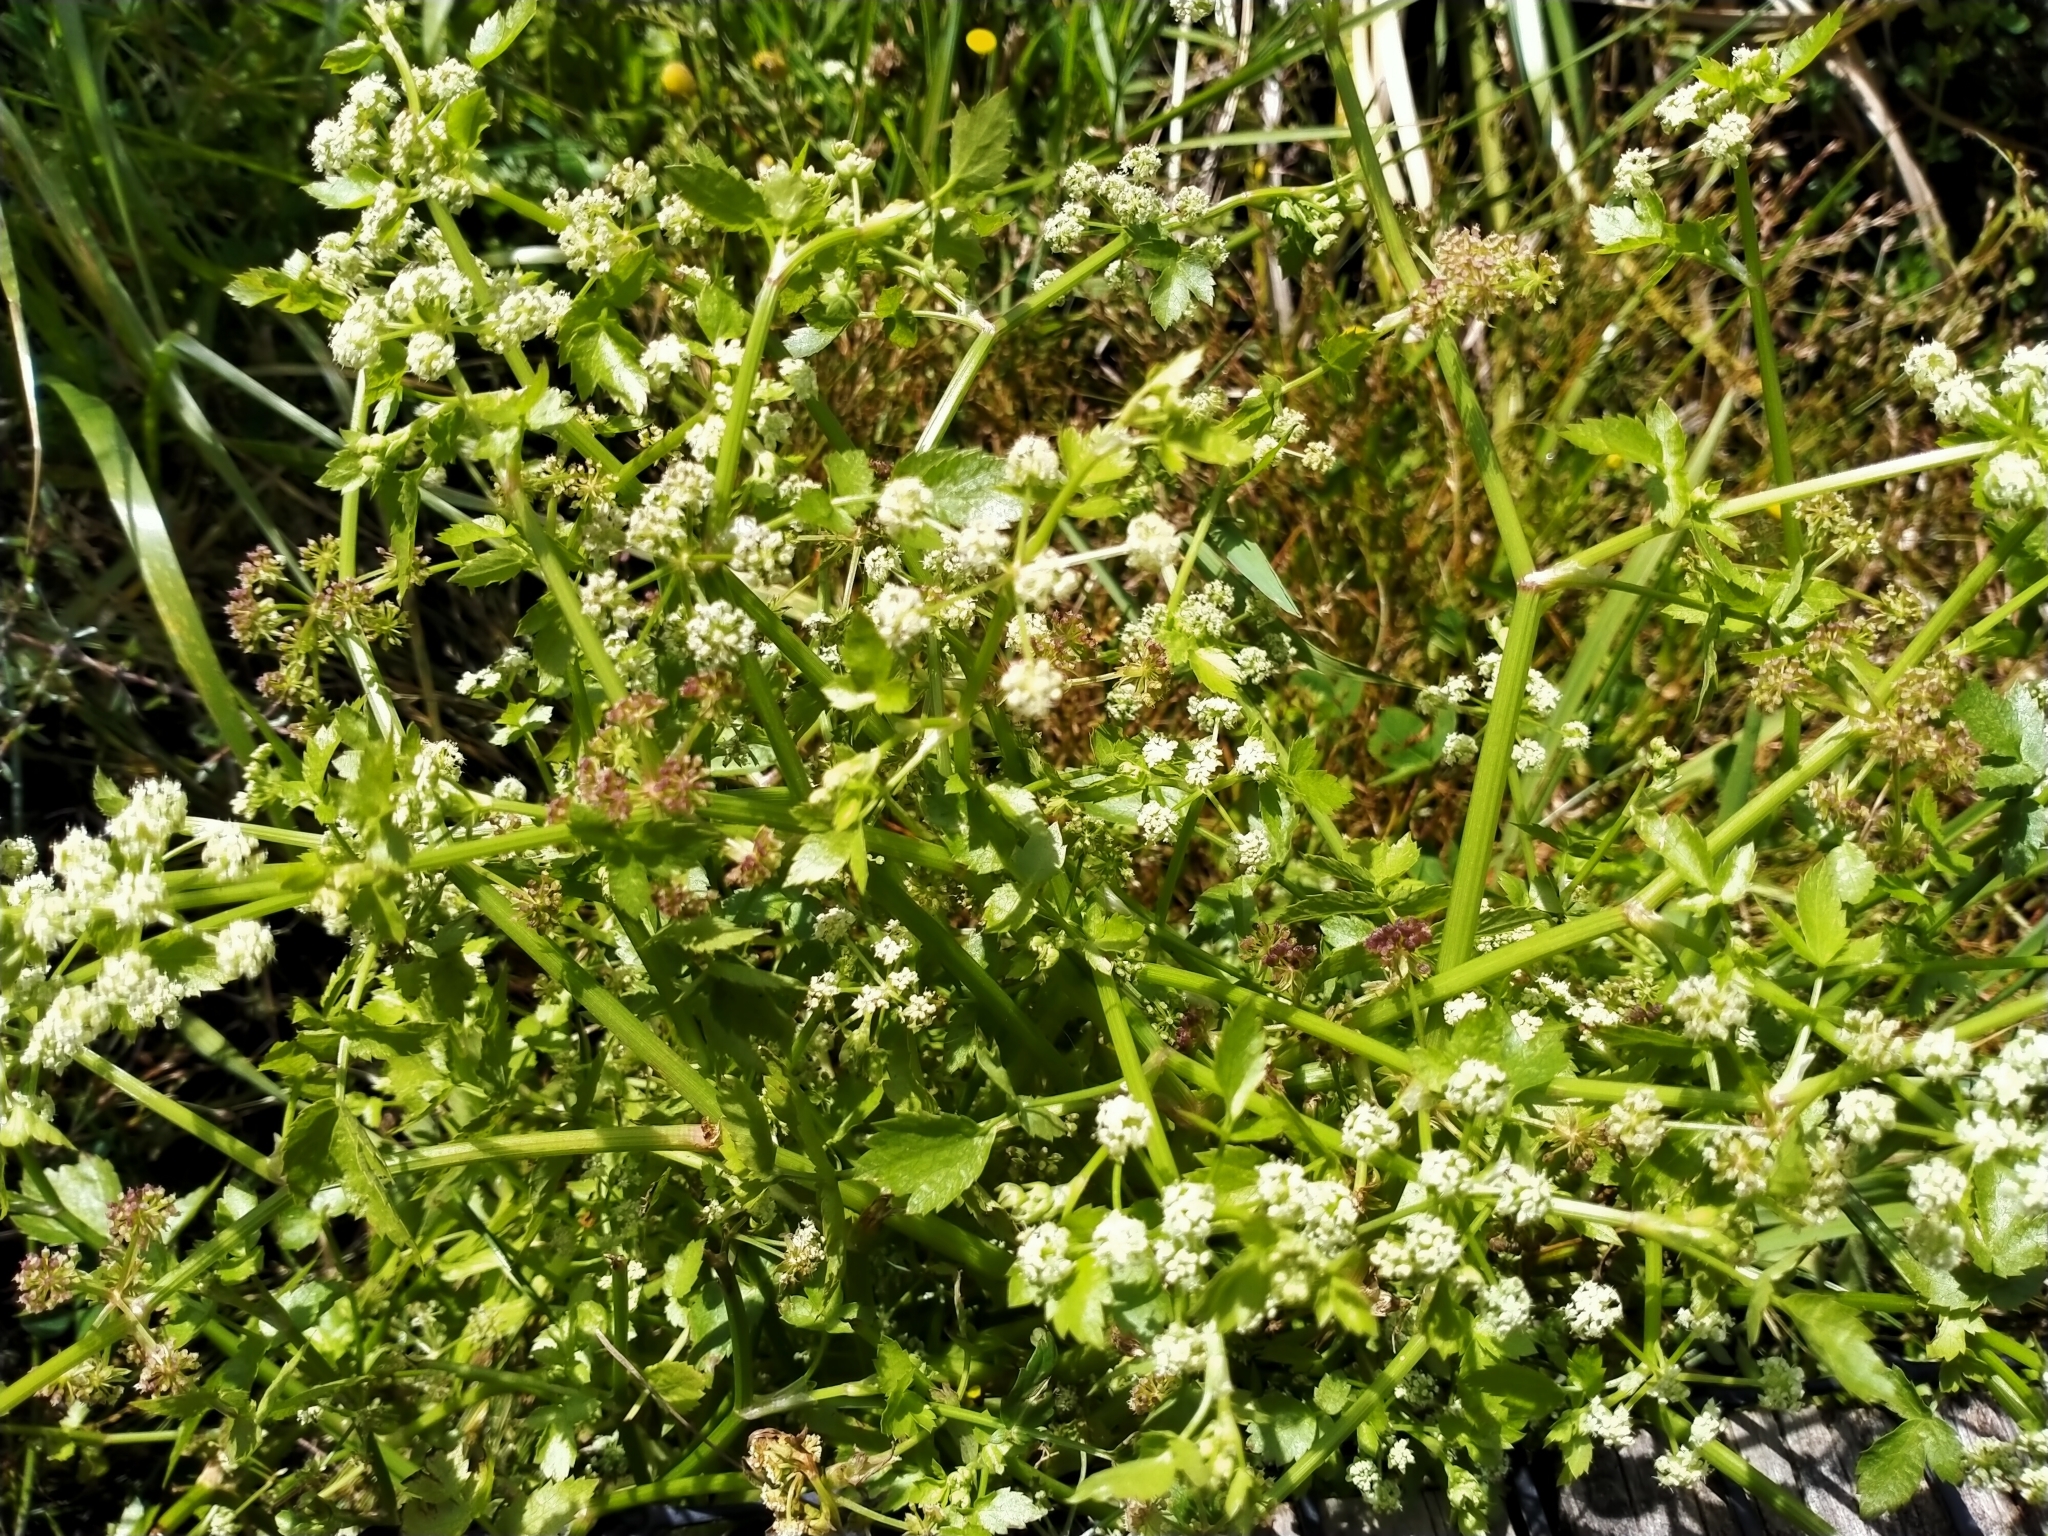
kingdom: Plantae
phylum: Tracheophyta
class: Magnoliopsida
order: Apiales
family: Apiaceae
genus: Helosciadium
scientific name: Helosciadium nodiflorum
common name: Fool's-watercress
